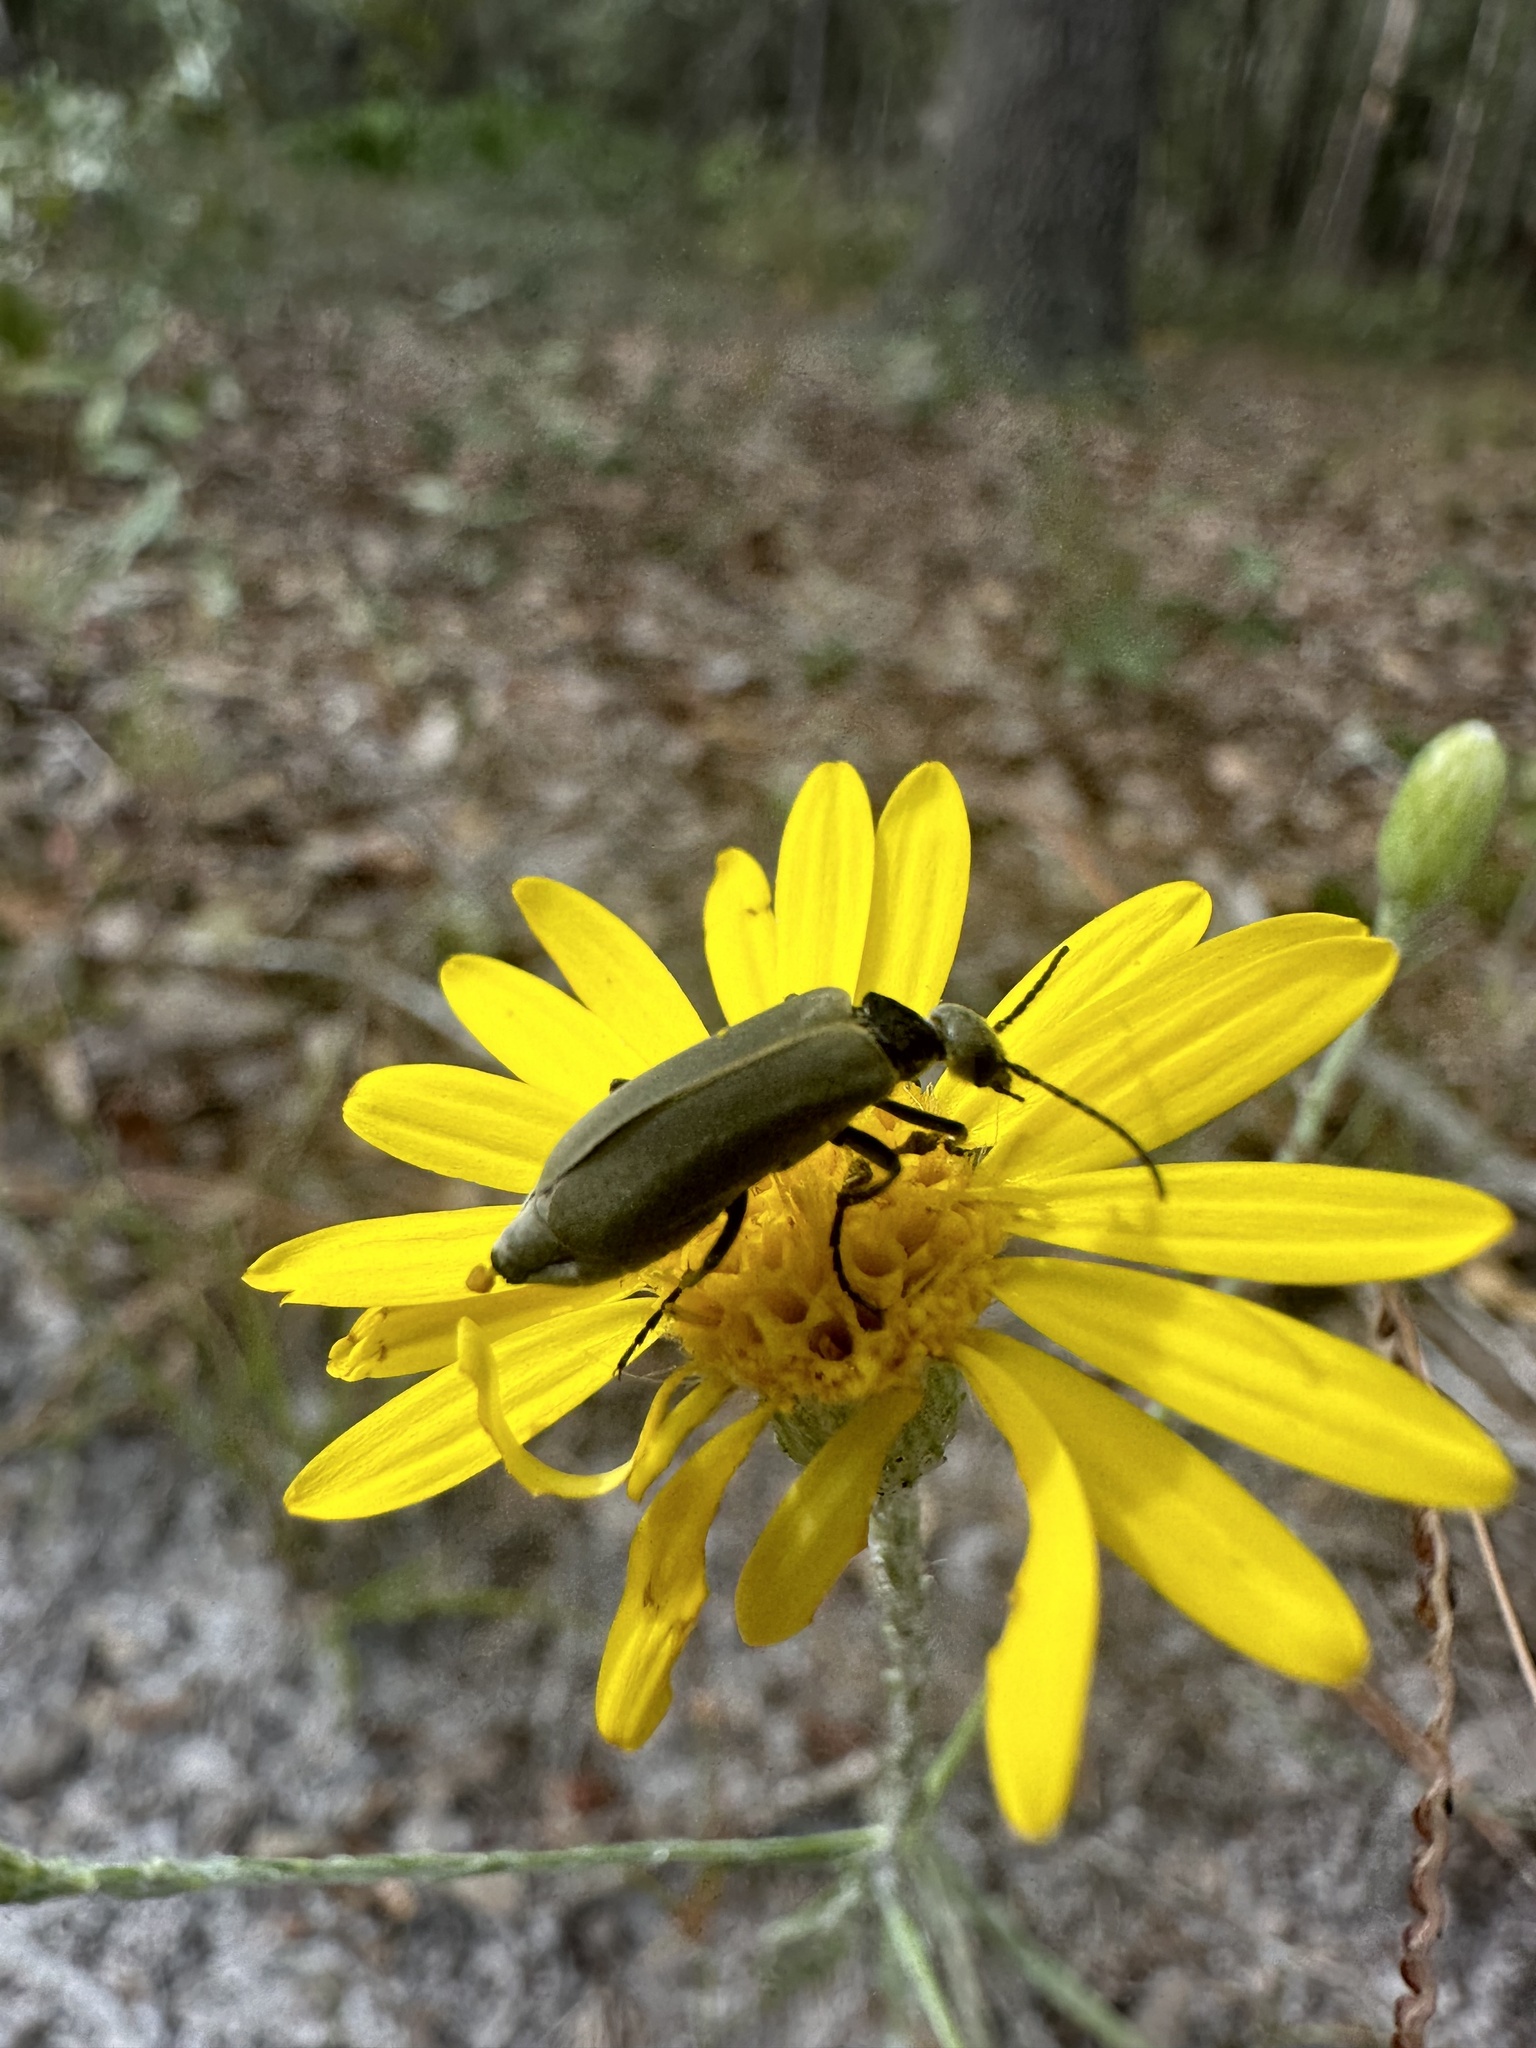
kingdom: Animalia
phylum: Arthropoda
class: Insecta
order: Coleoptera
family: Meloidae
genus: Epicauta
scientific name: Epicauta heterodera
